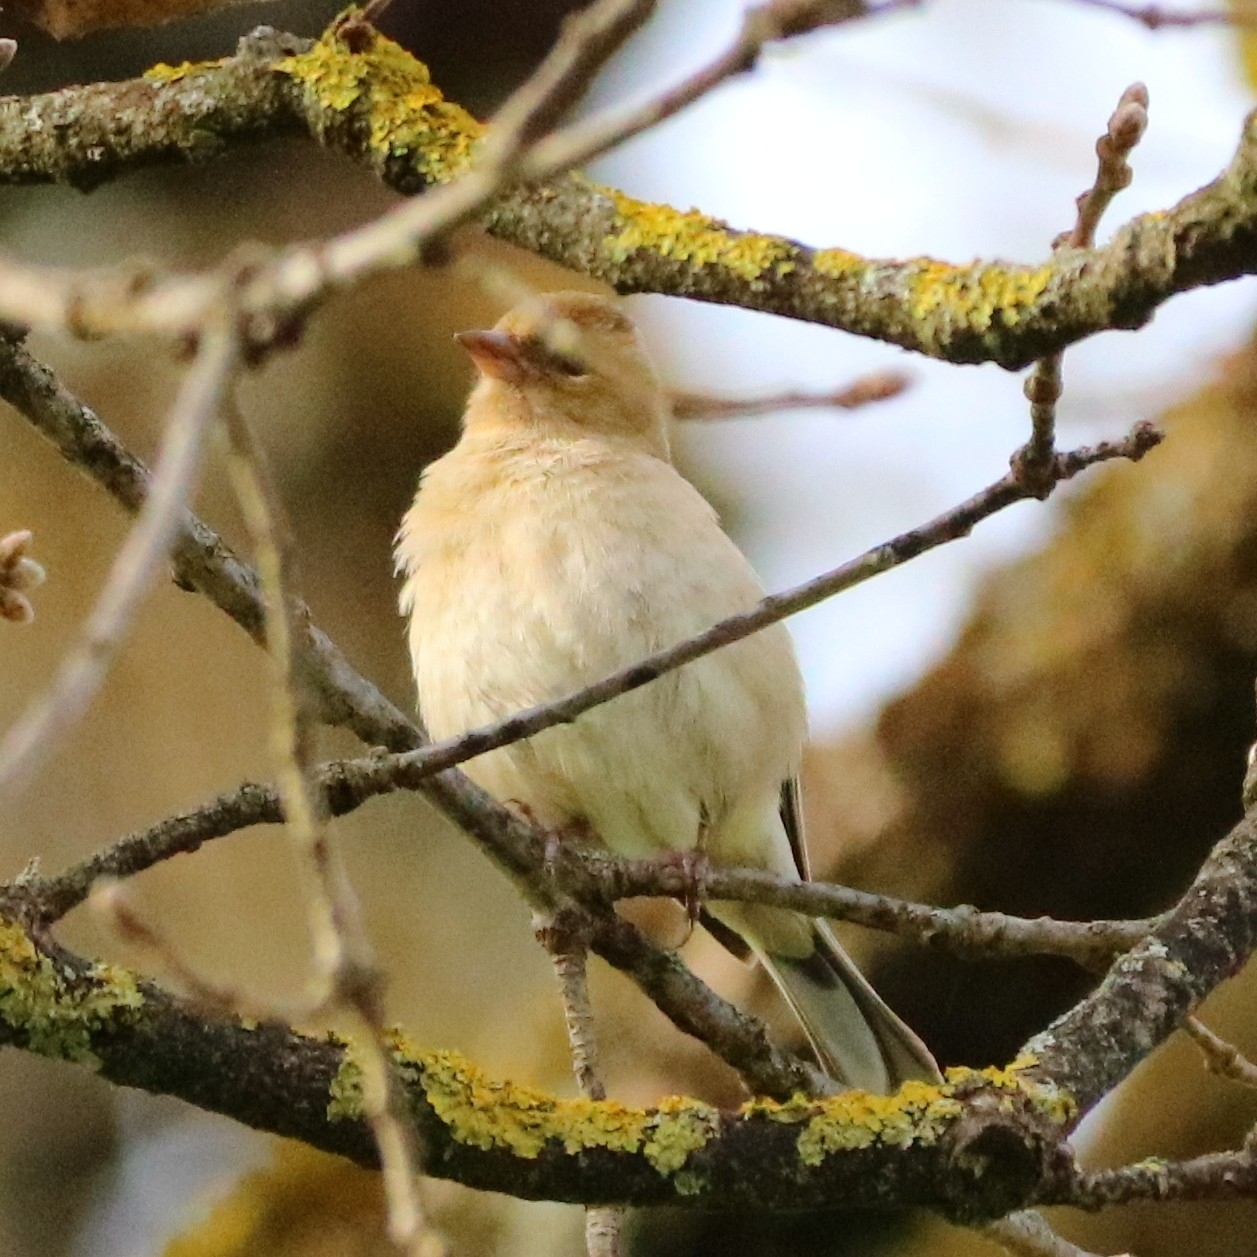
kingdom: Animalia
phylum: Chordata
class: Aves
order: Passeriformes
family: Fringillidae
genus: Fringilla
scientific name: Fringilla coelebs
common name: Common chaffinch
